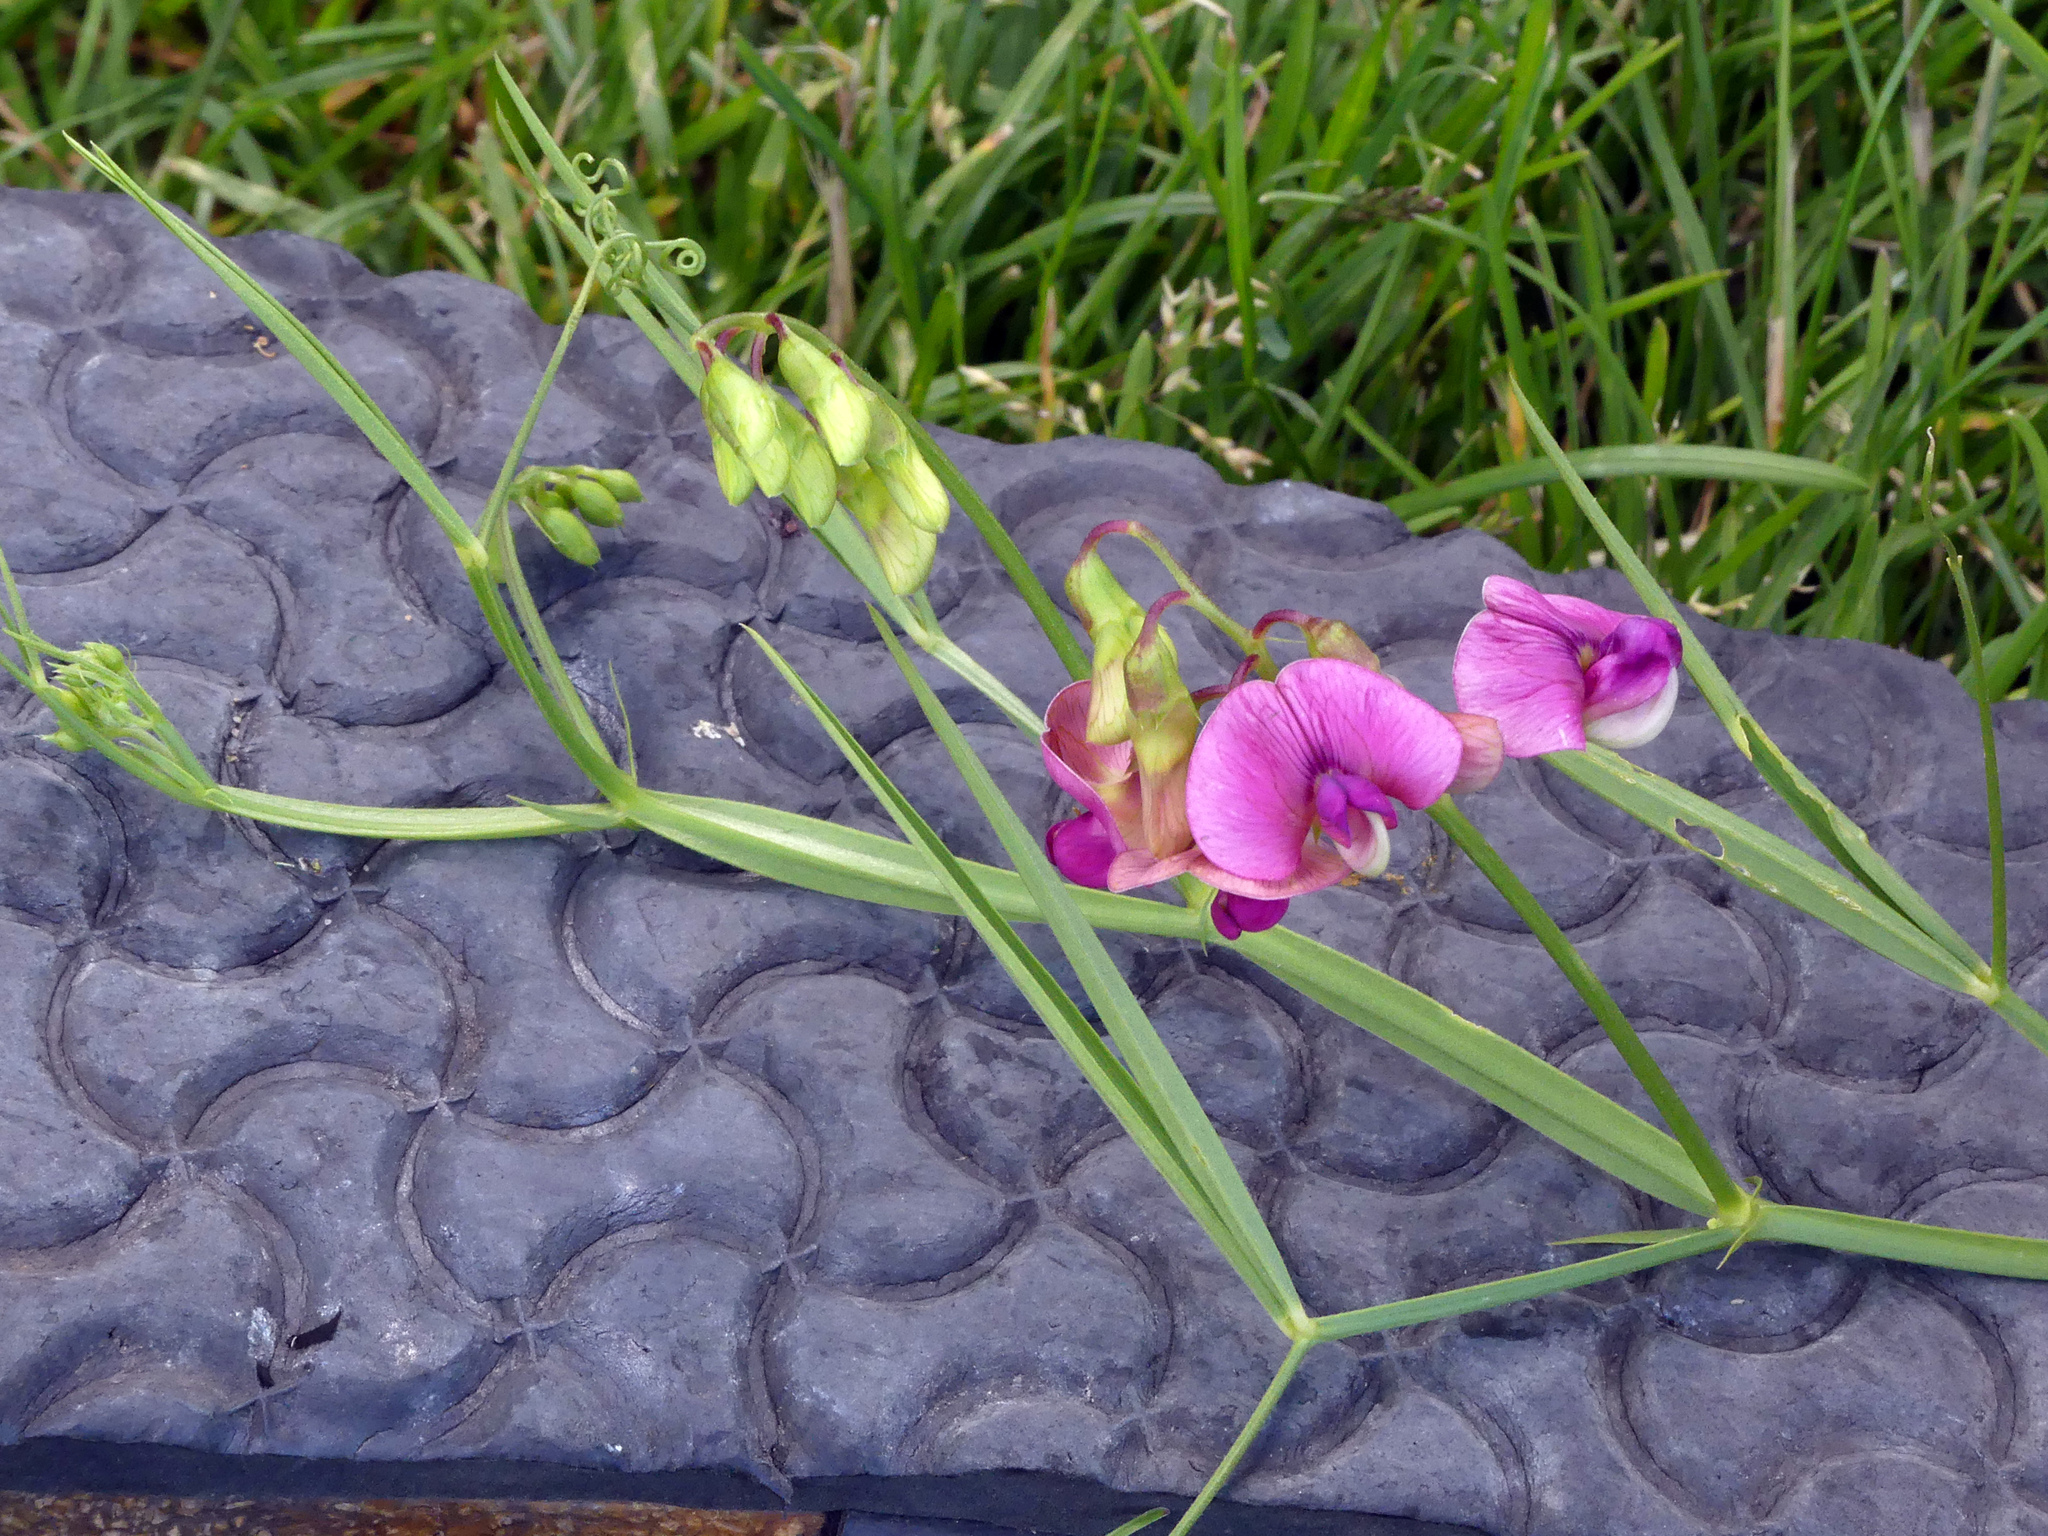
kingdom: Plantae
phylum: Tracheophyta
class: Magnoliopsida
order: Fabales
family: Fabaceae
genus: Lathyrus
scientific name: Lathyrus sylvestris
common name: Flat pea
